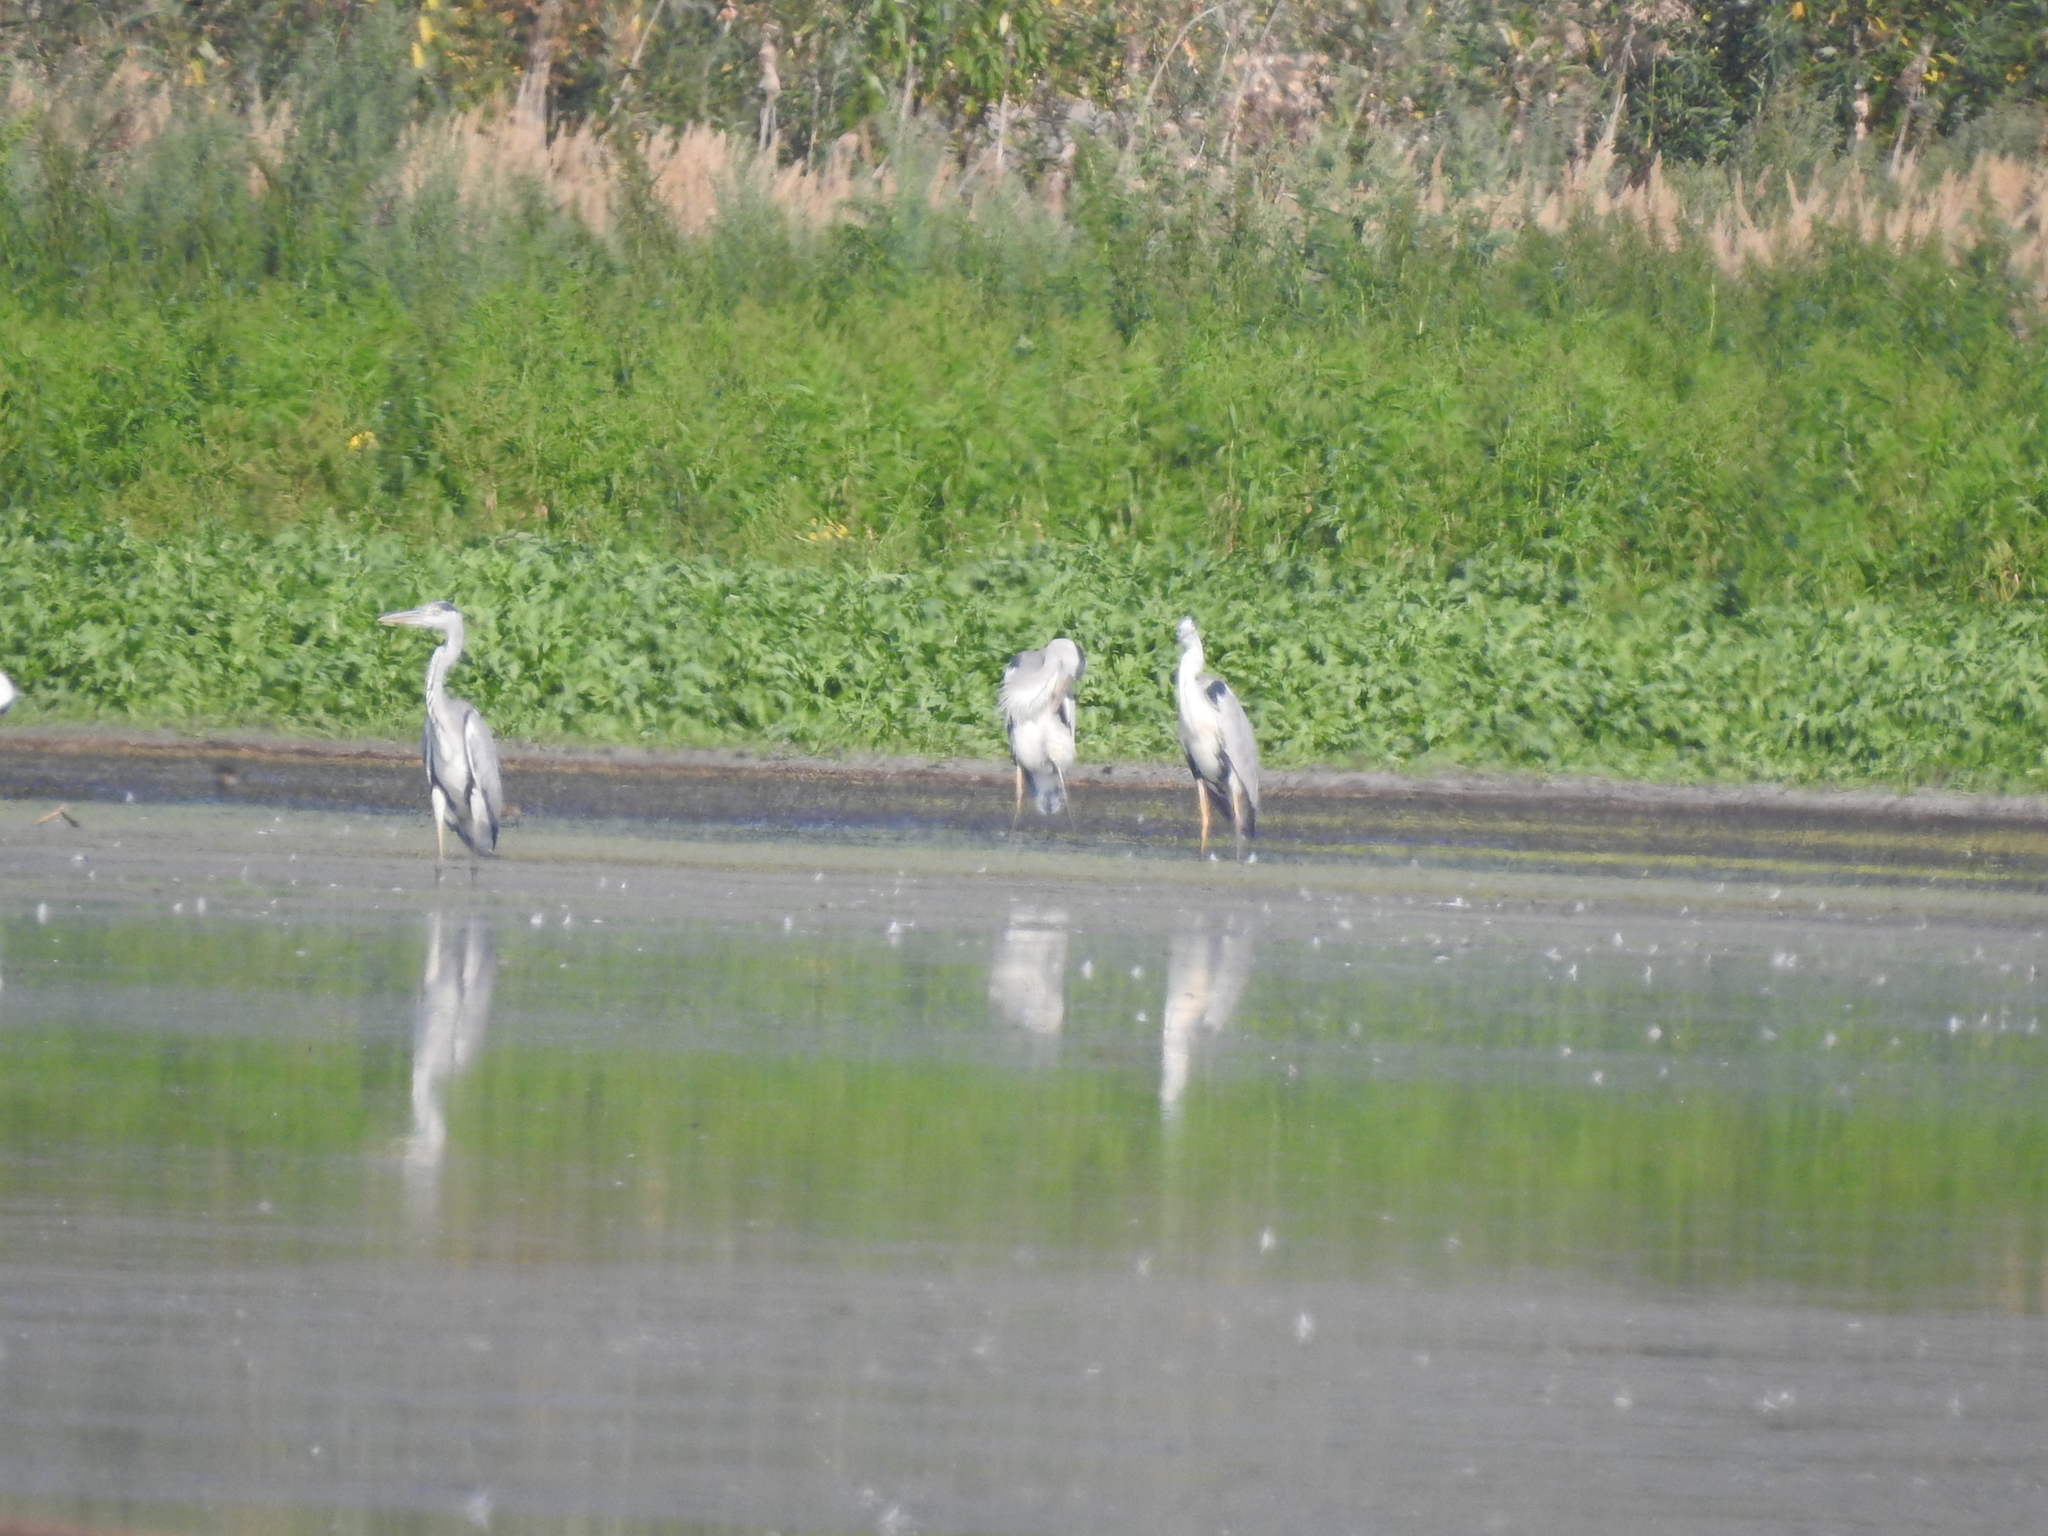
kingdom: Animalia
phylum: Chordata
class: Aves
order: Pelecaniformes
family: Ardeidae
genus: Ardea
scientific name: Ardea cinerea
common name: Grey heron
